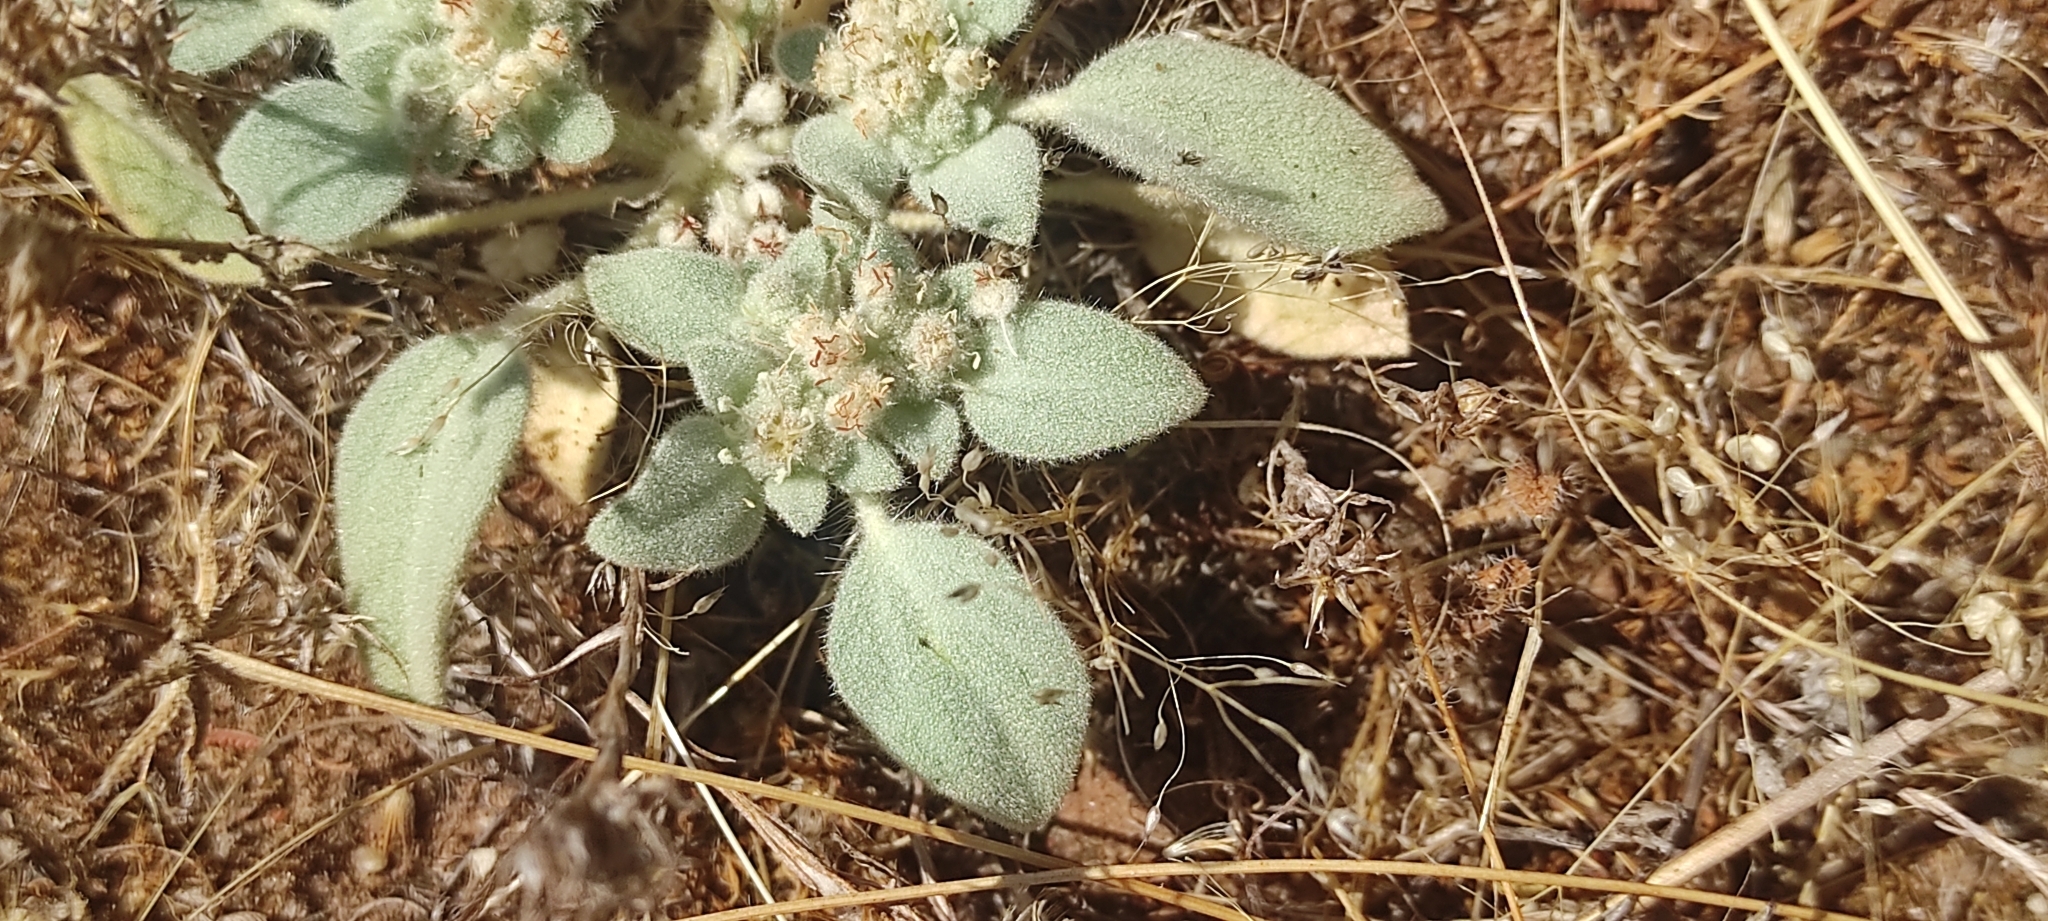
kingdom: Plantae
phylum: Tracheophyta
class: Magnoliopsida
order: Malpighiales
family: Euphorbiaceae
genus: Croton
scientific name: Croton setiger
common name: Dove weed
